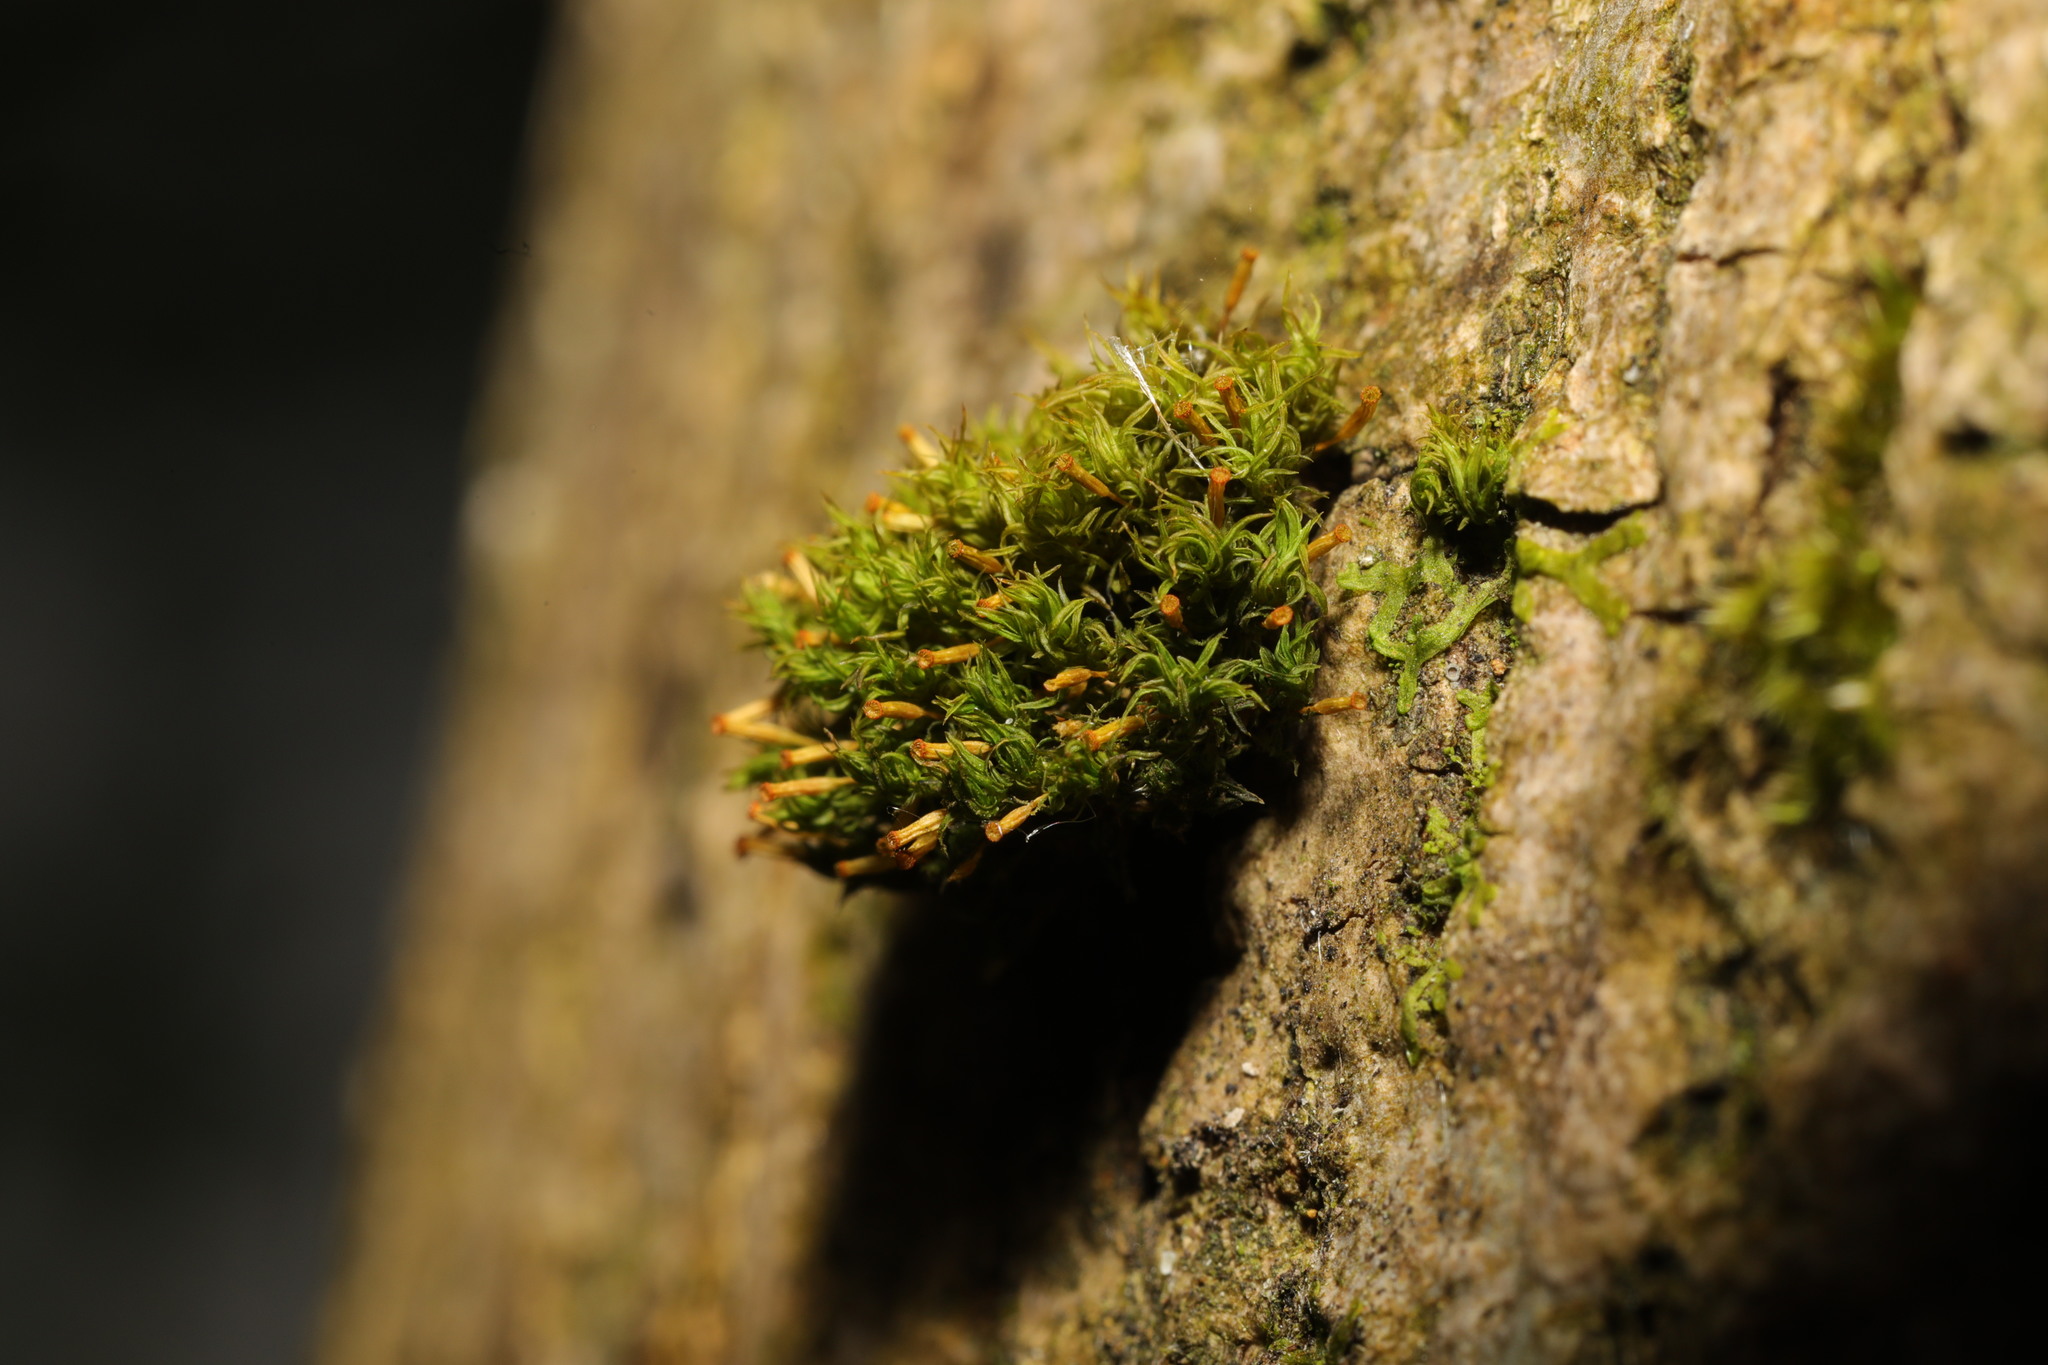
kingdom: Plantae
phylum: Bryophyta
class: Bryopsida
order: Orthotrichales
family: Orthotrichaceae
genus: Orthotrichum
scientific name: Orthotrichum pulchellum
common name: Elegant bristle-moss
